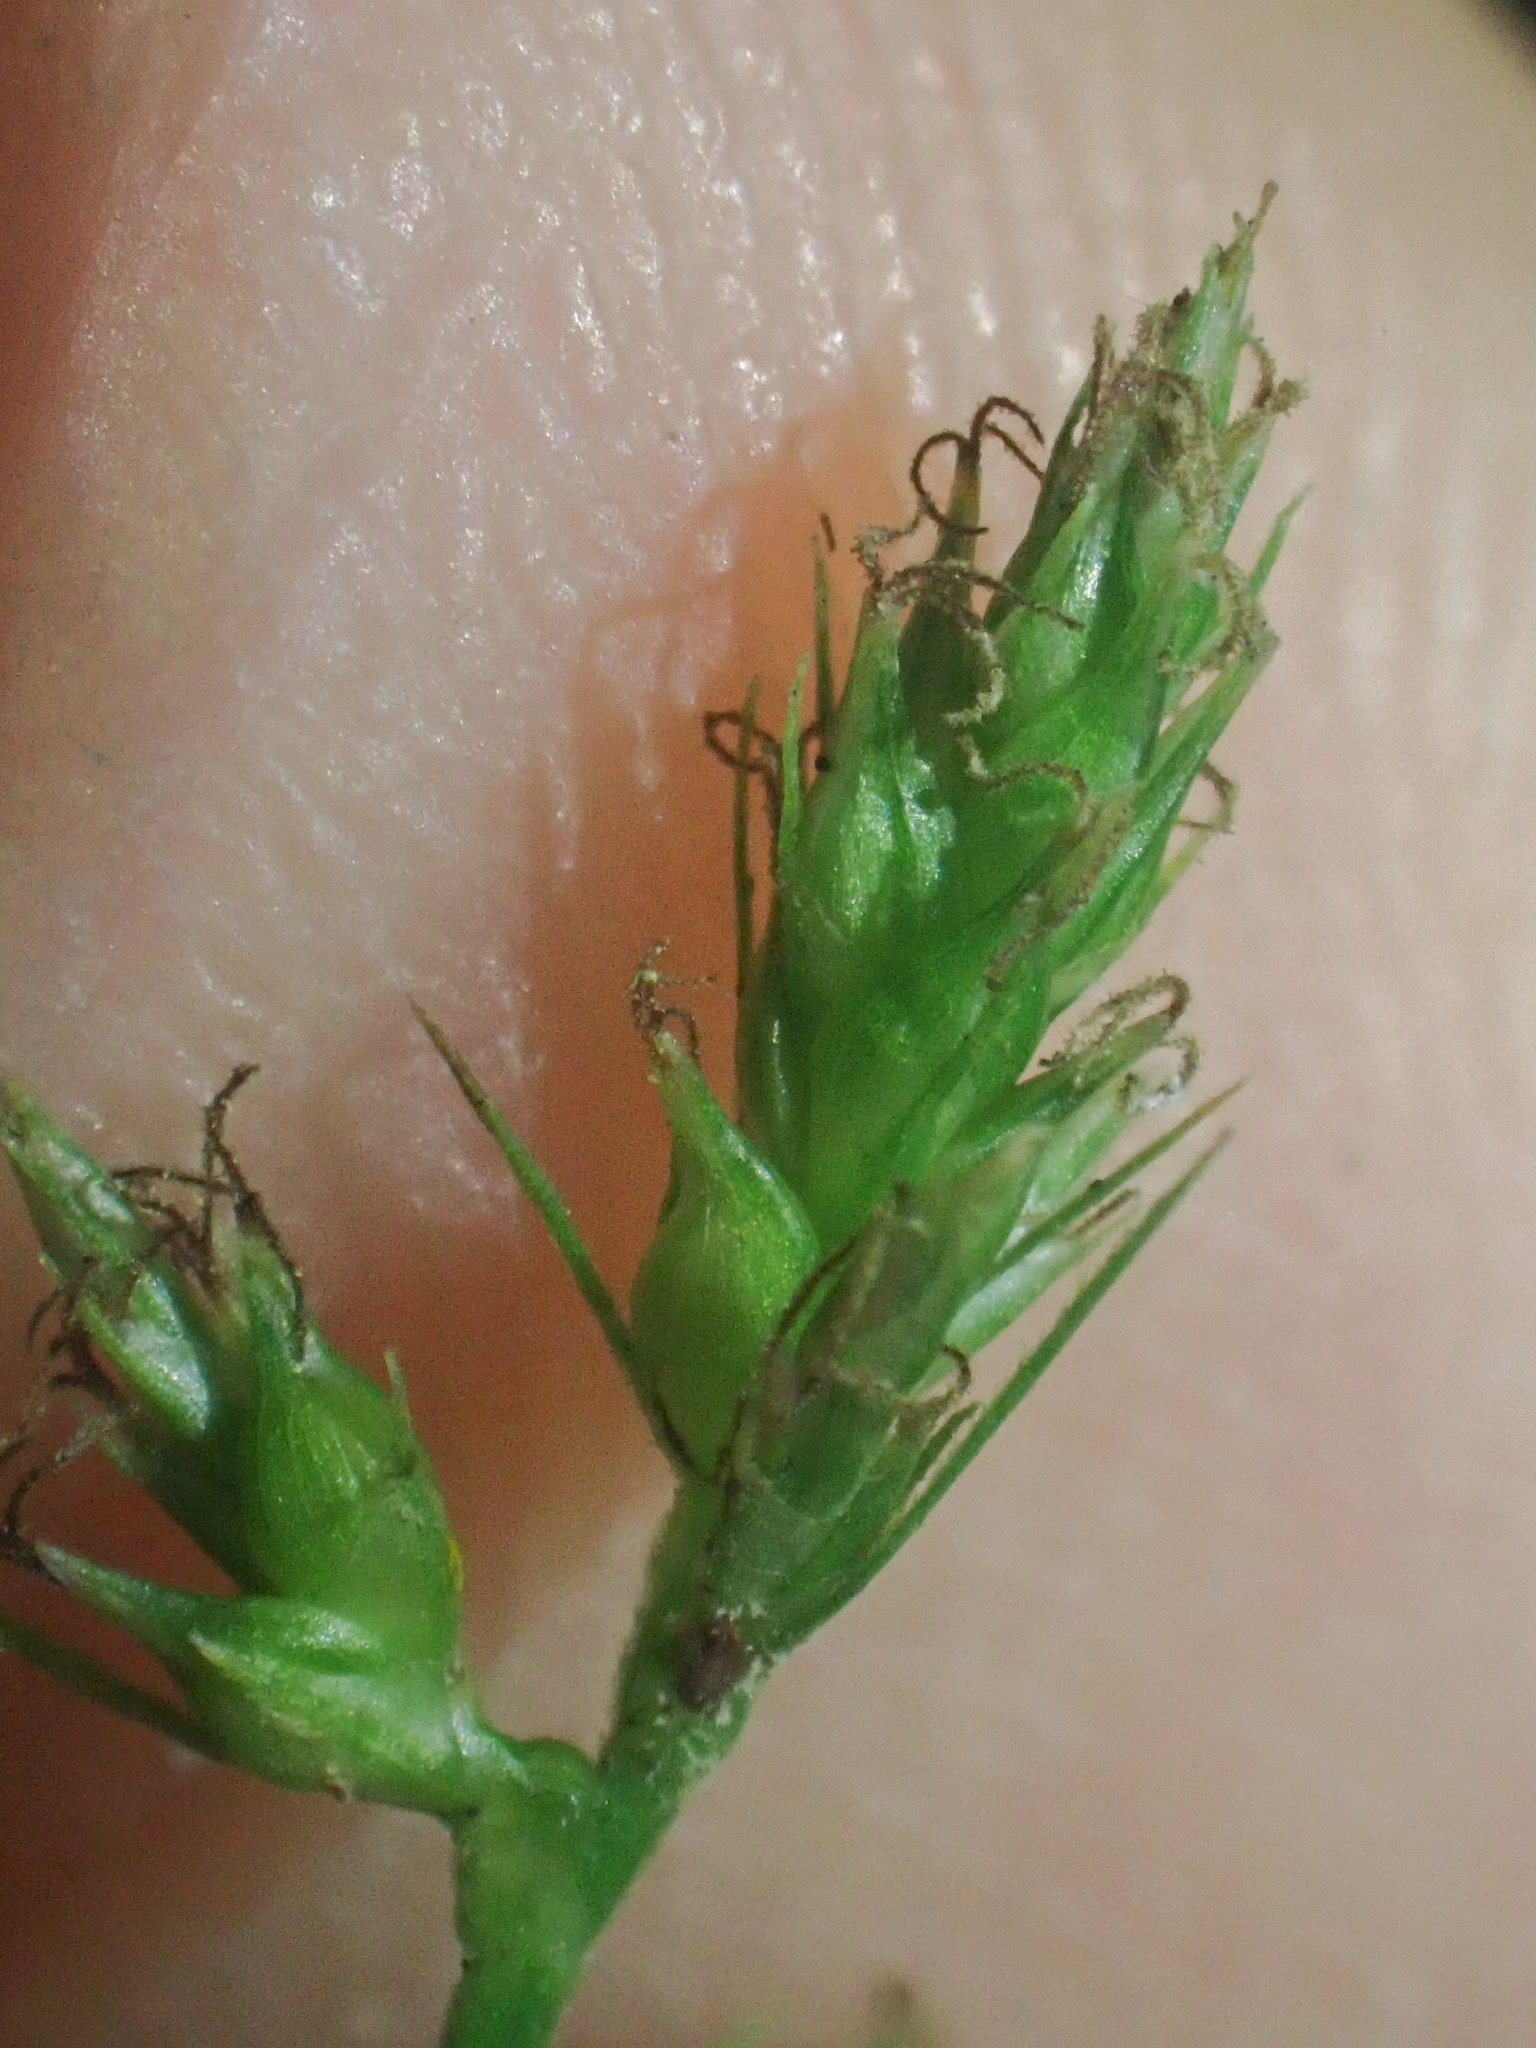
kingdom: Plantae
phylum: Tracheophyta
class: Liliopsida
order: Poales
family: Cyperaceae
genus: Carex
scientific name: Carex polystachya
